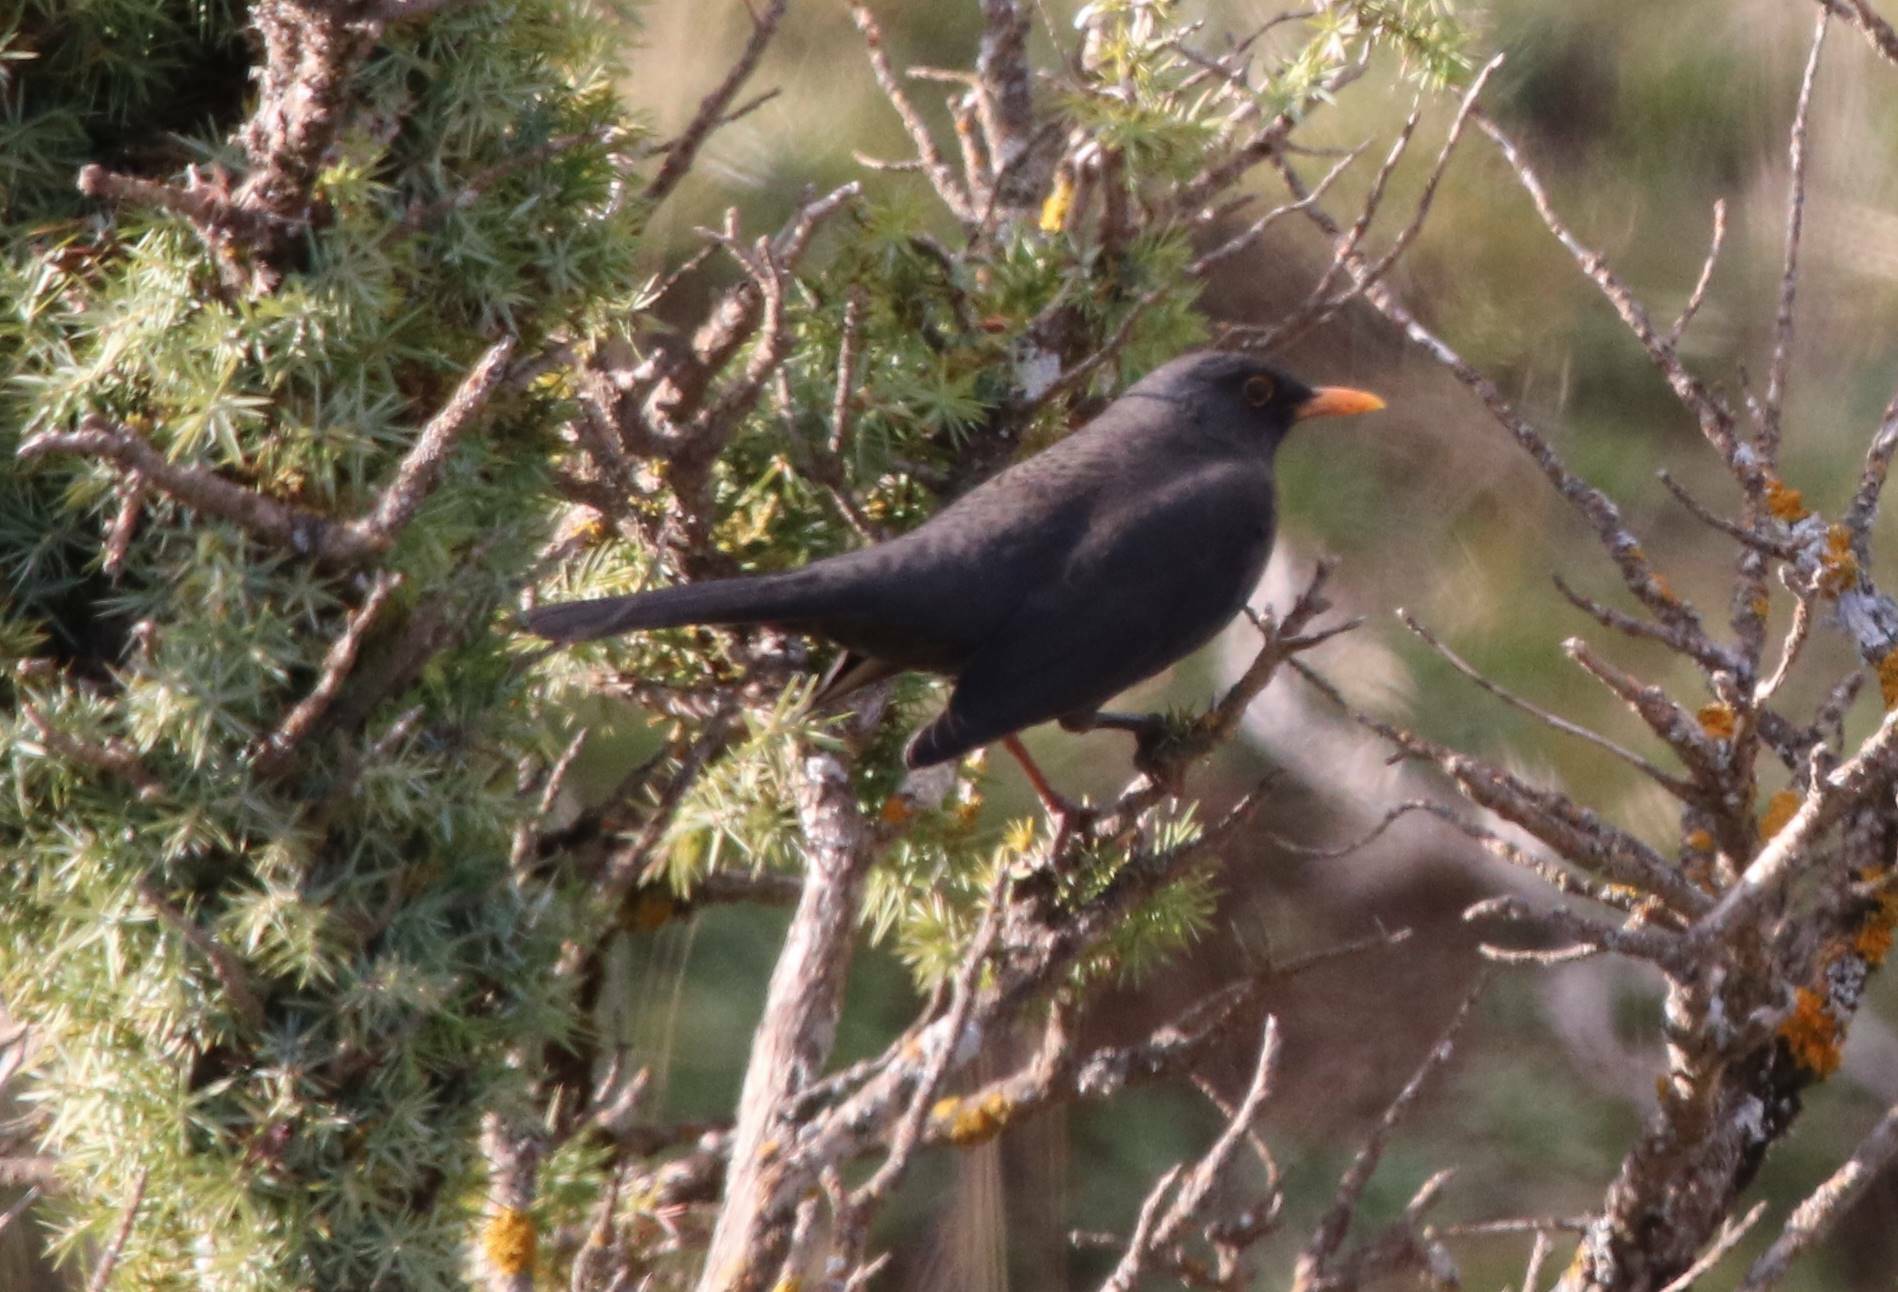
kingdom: Animalia
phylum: Chordata
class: Aves
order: Passeriformes
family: Turdidae
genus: Turdus
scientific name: Turdus merula
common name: Common blackbird
